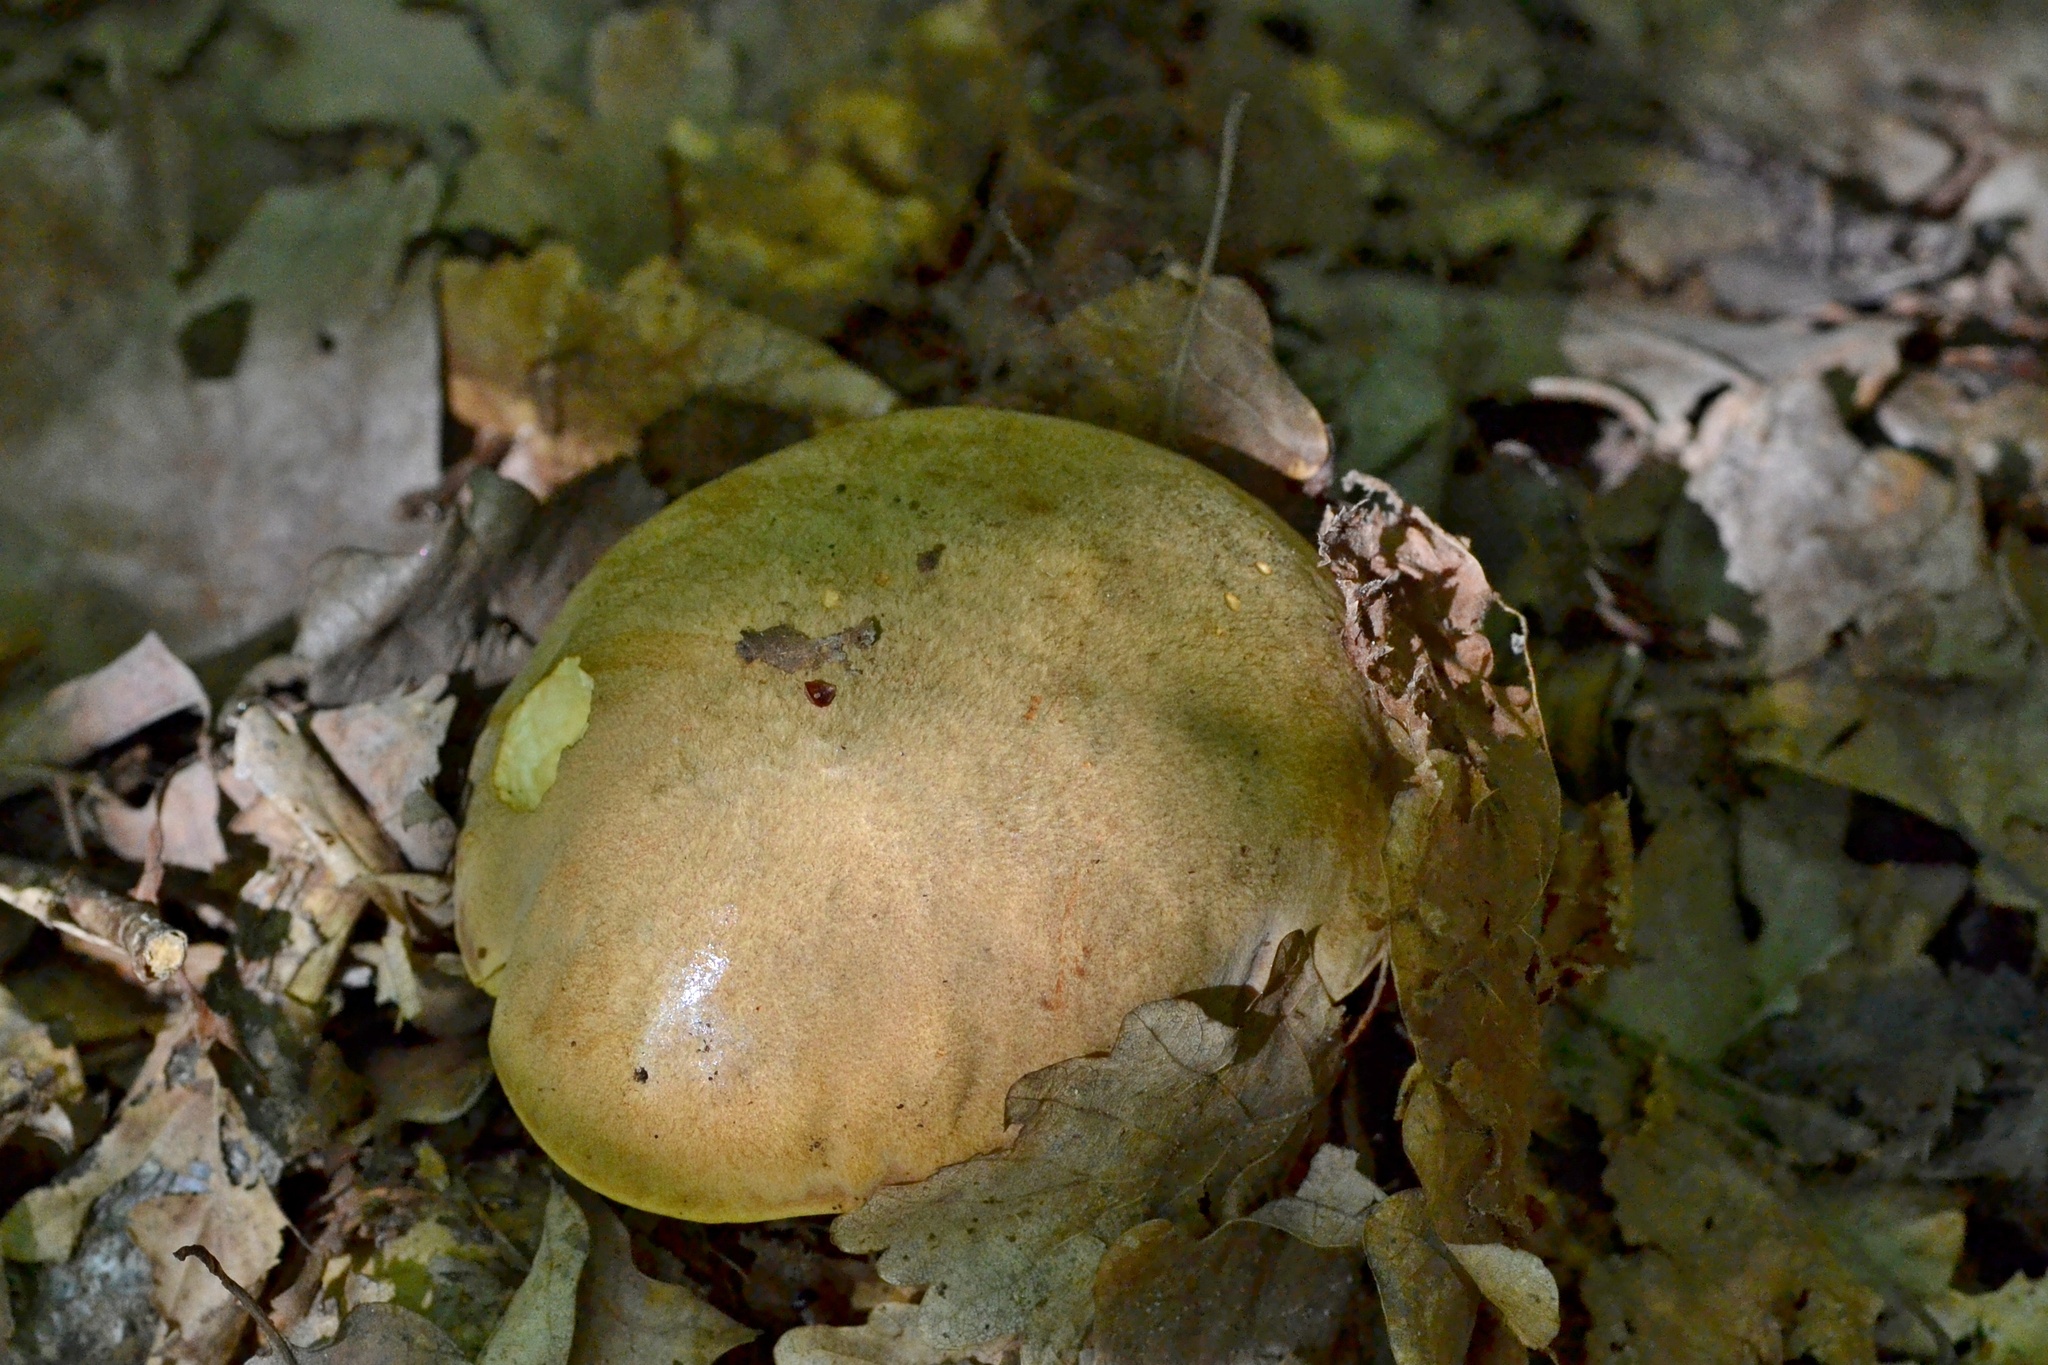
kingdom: Fungi
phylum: Basidiomycota
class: Agaricomycetes
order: Boletales
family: Boletaceae
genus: Hemileccinum
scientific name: Hemileccinum impolitum
